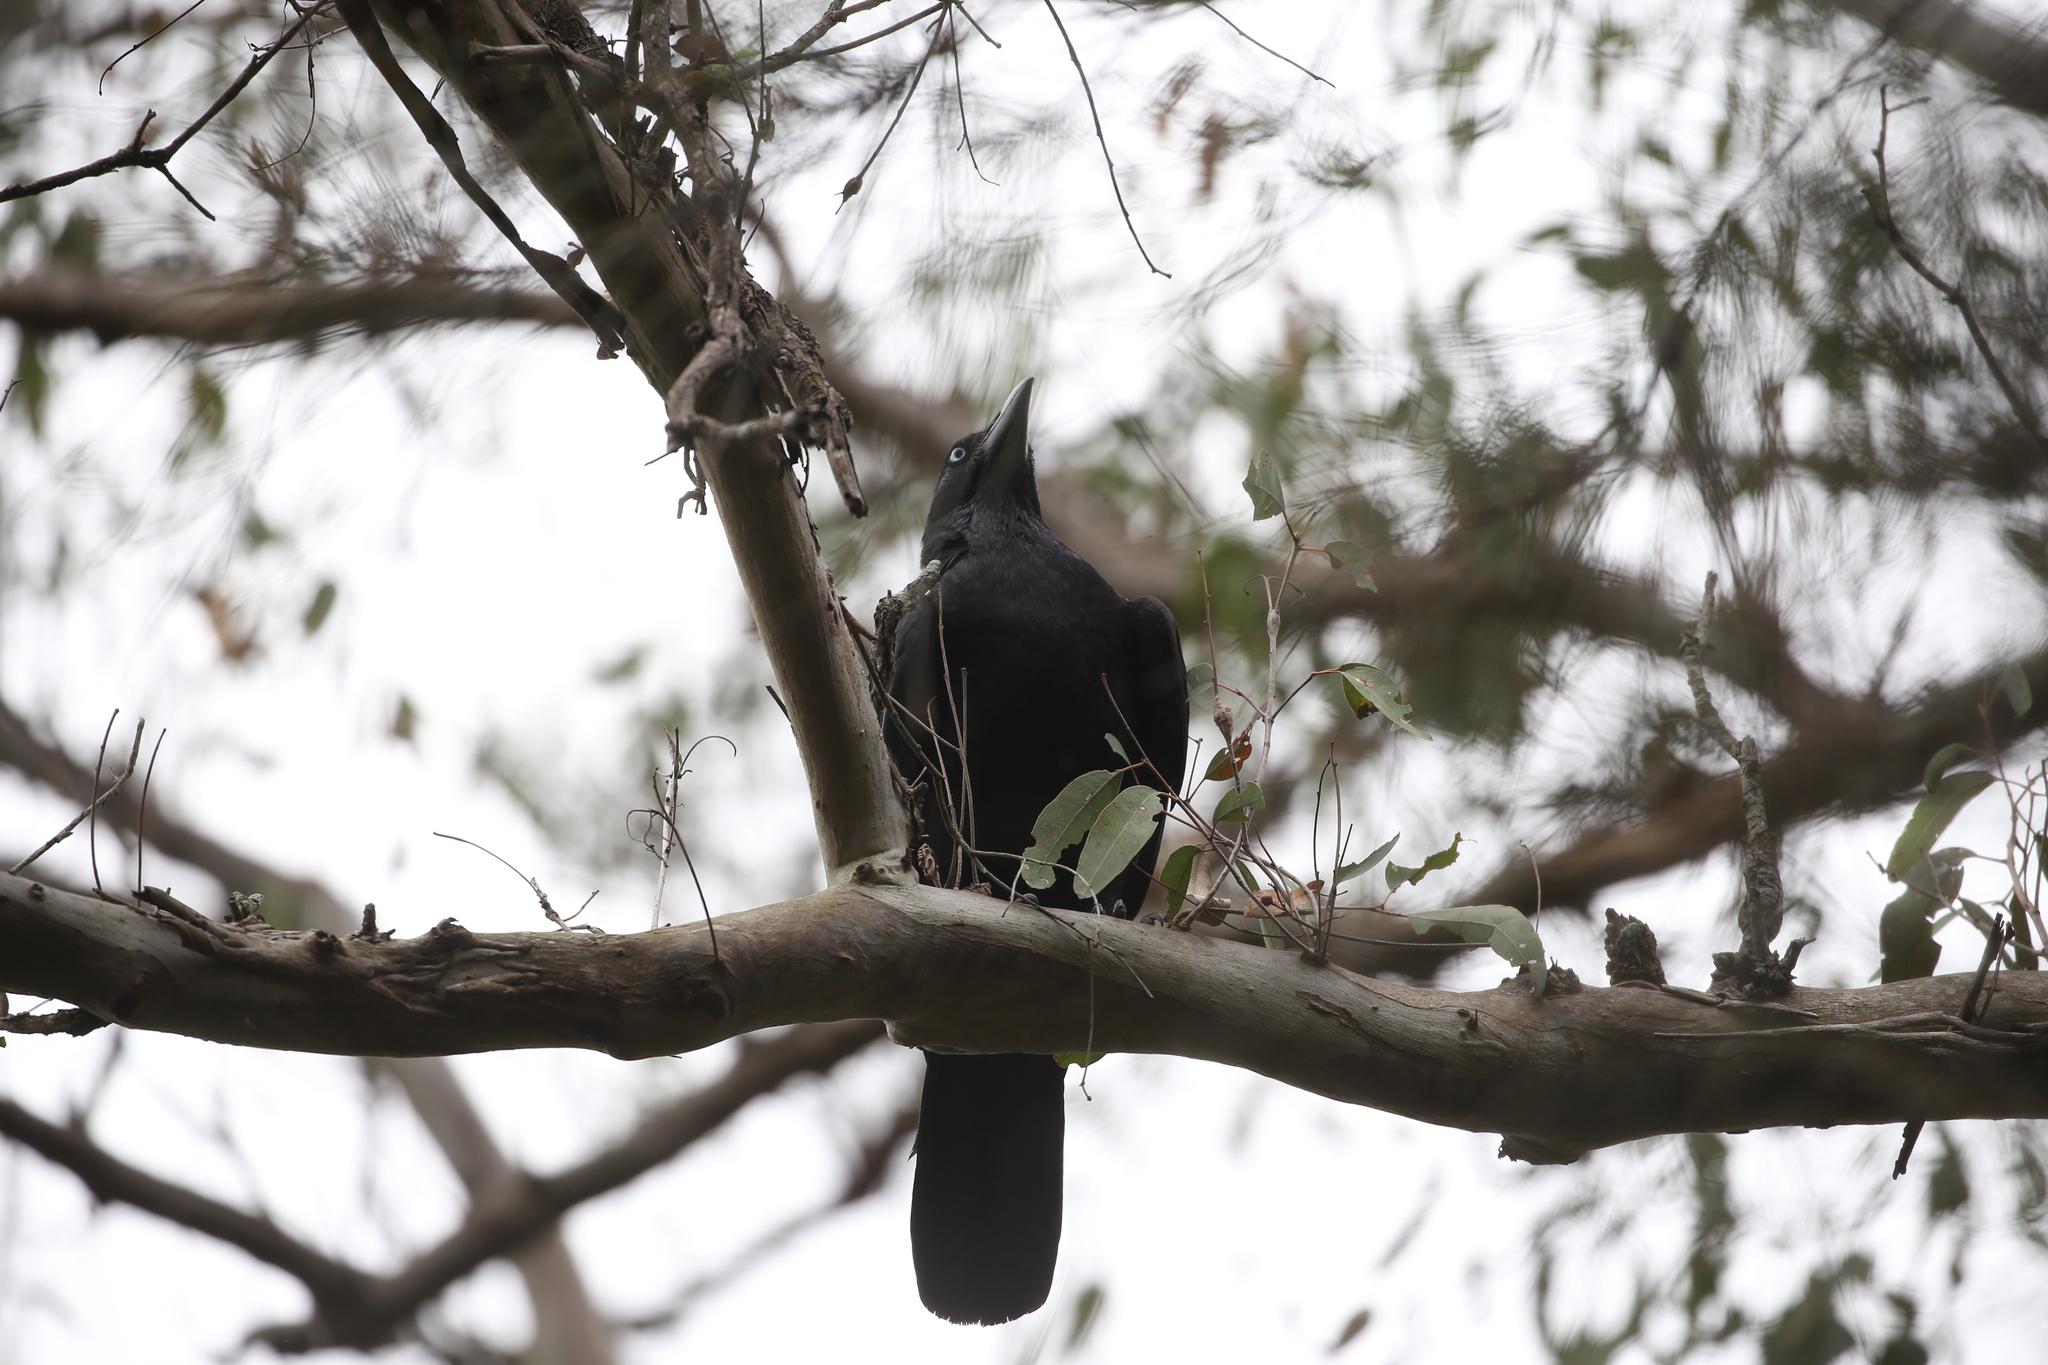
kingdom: Animalia
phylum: Chordata
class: Aves
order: Passeriformes
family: Corvidae
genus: Corvus
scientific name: Corvus orru
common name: Torresian crow
